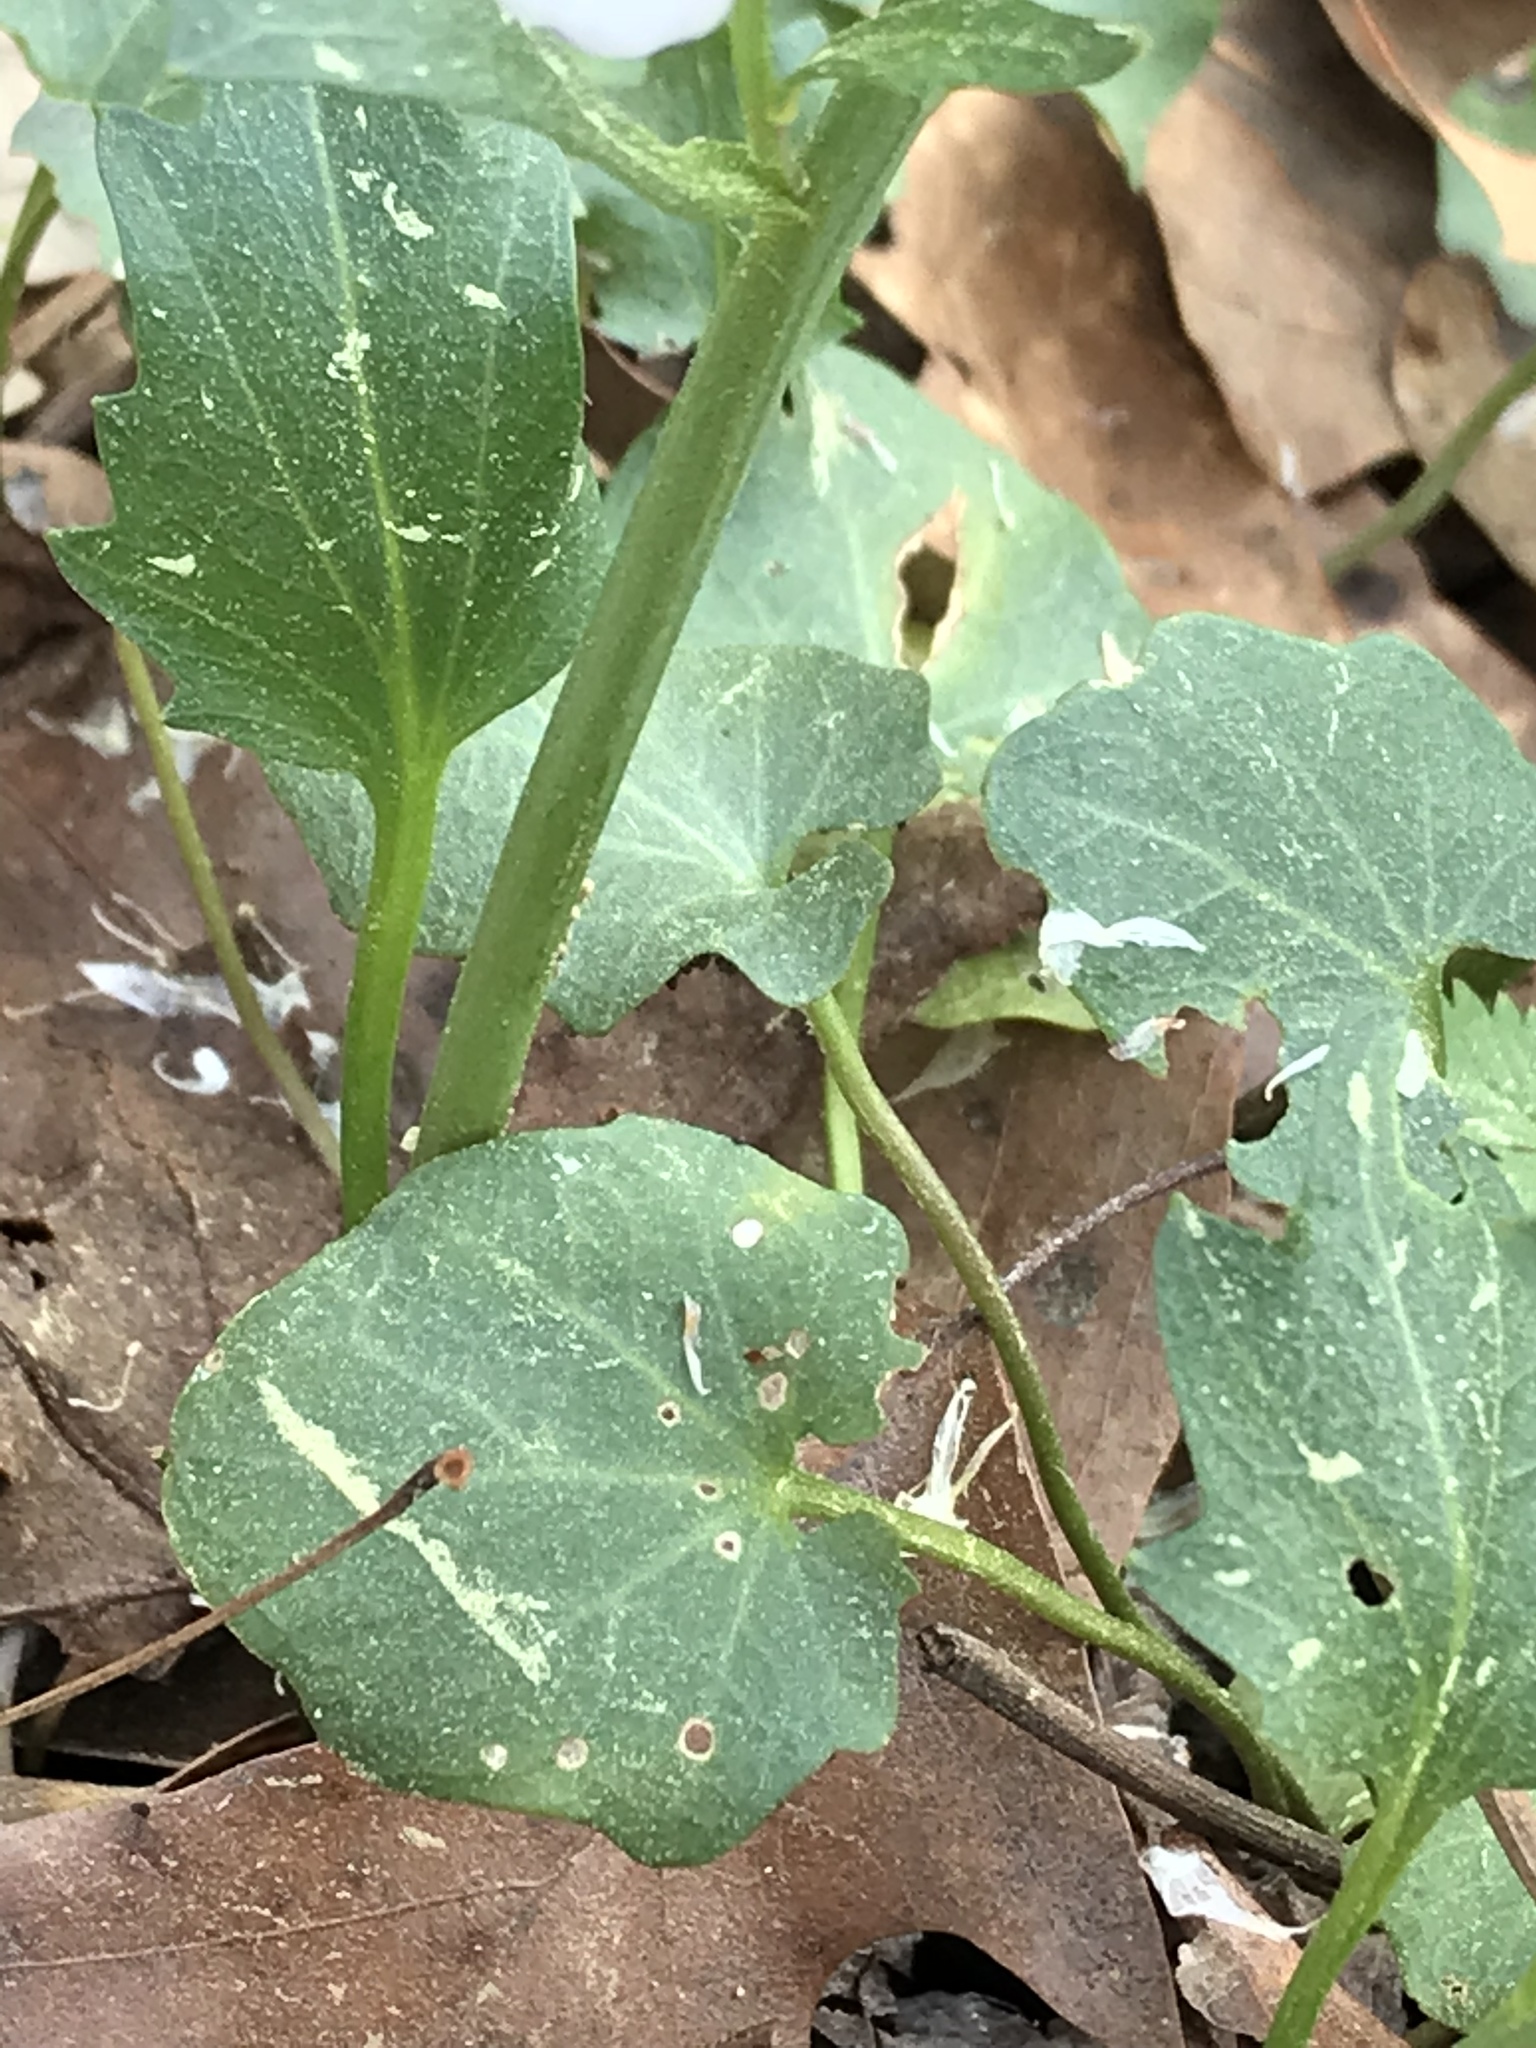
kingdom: Plantae
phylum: Tracheophyta
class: Magnoliopsida
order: Brassicales
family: Brassicaceae
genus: Cardamine
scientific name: Cardamine bulbosa
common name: Spring cress
